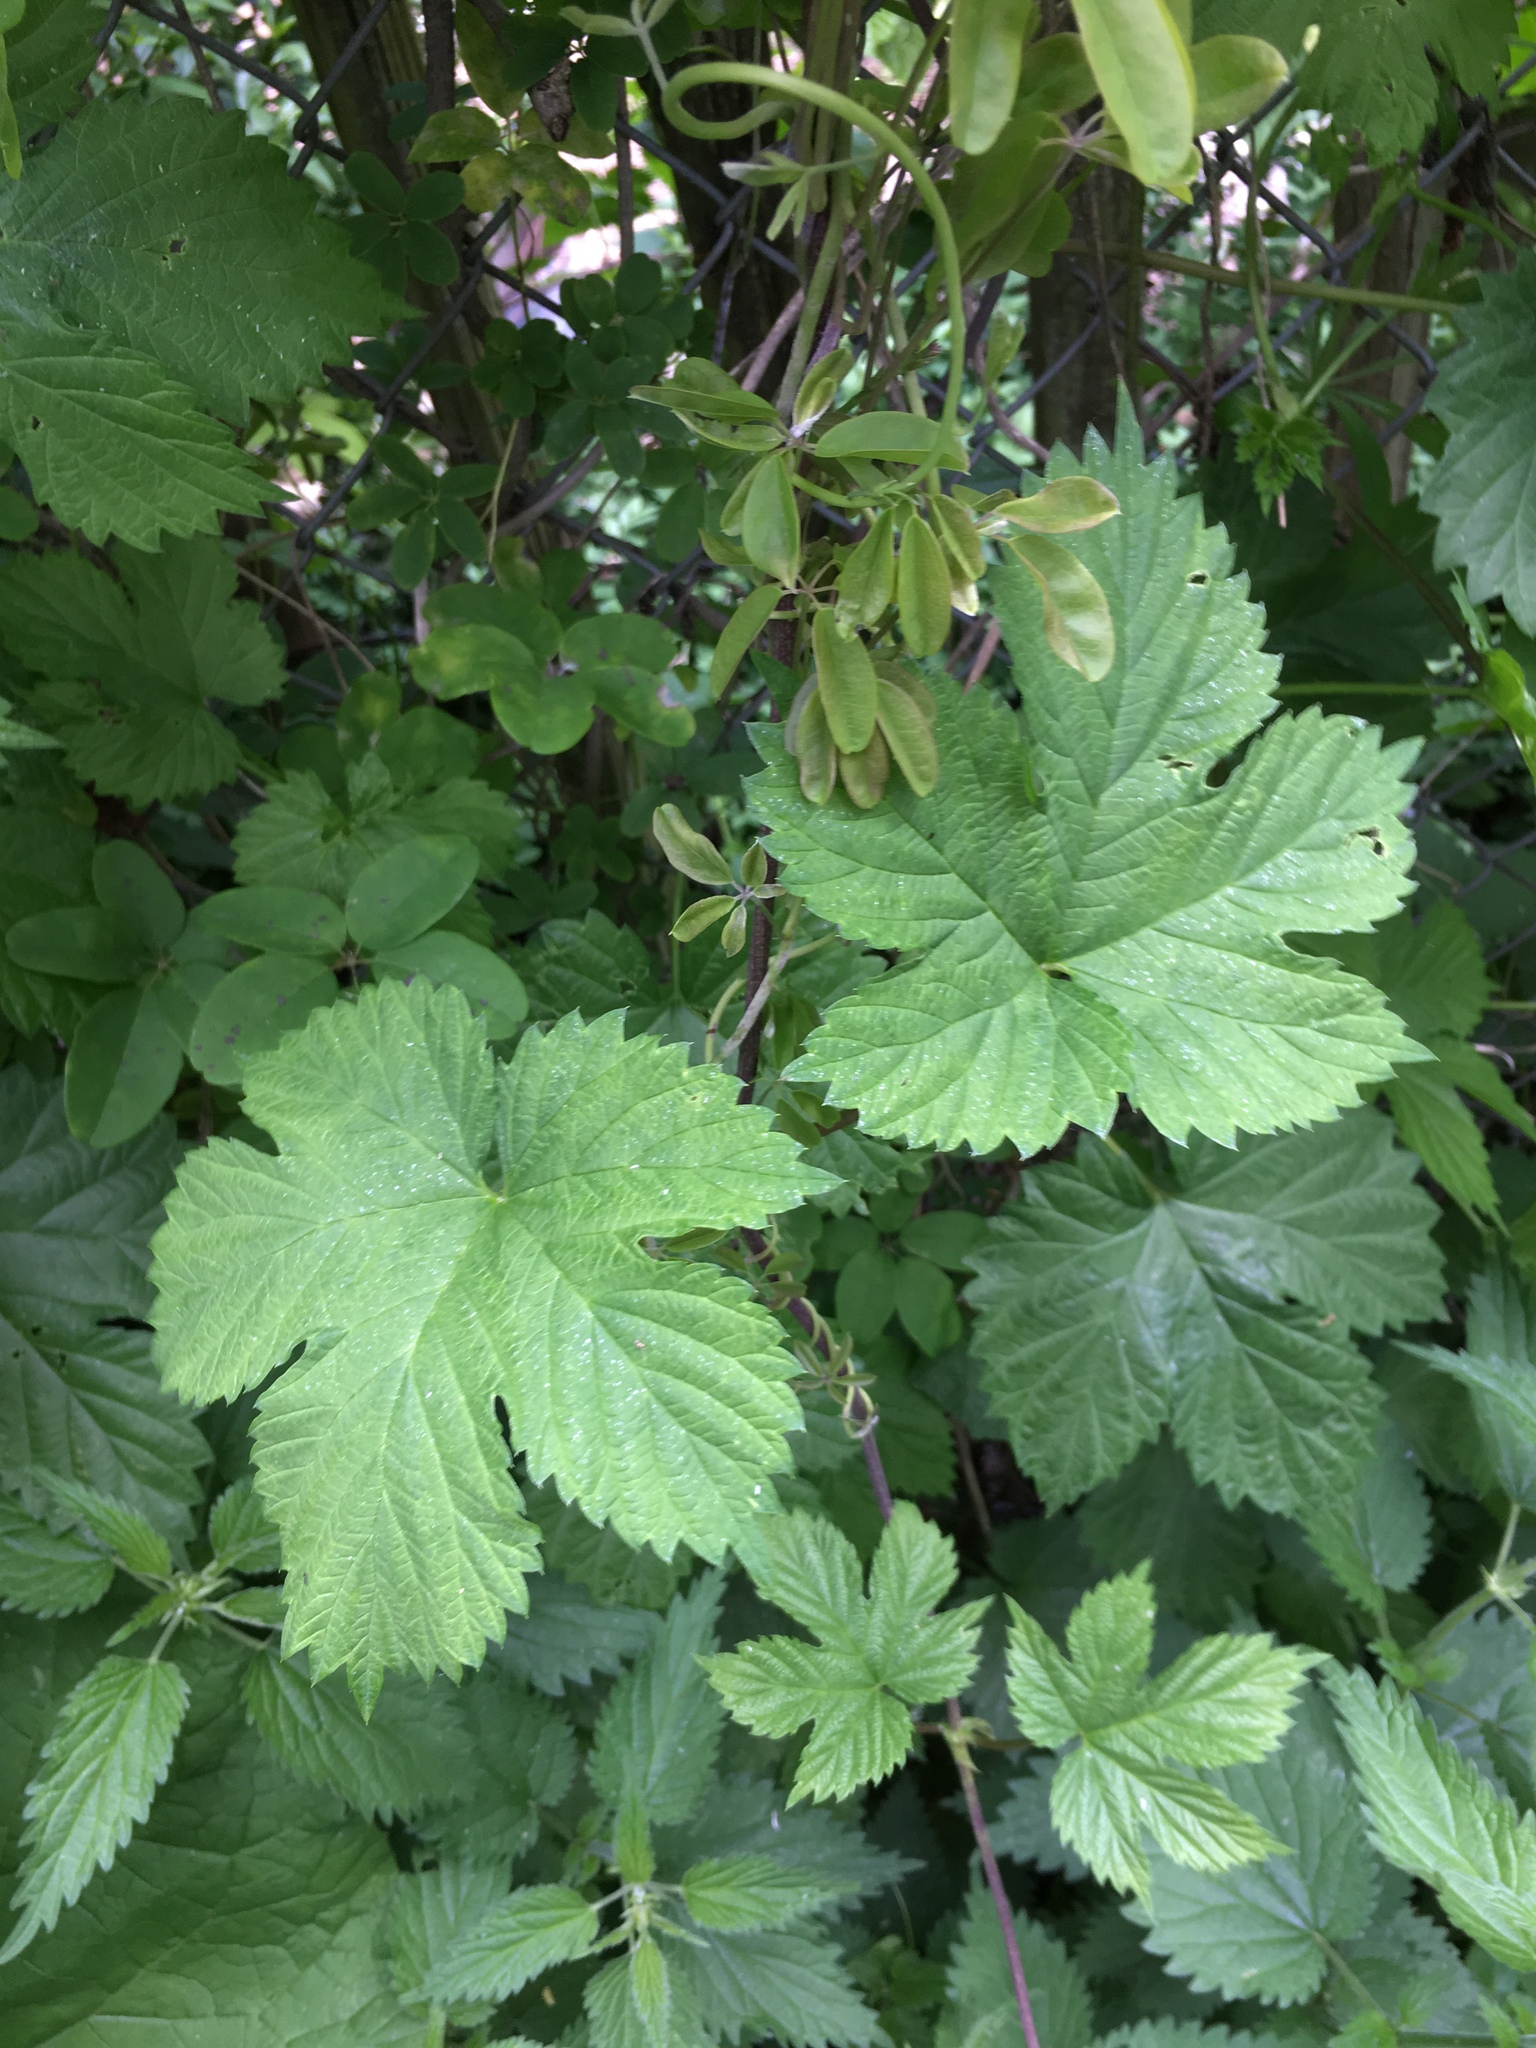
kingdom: Plantae
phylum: Tracheophyta
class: Magnoliopsida
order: Rosales
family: Cannabaceae
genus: Humulus
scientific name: Humulus lupulus
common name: Hop
